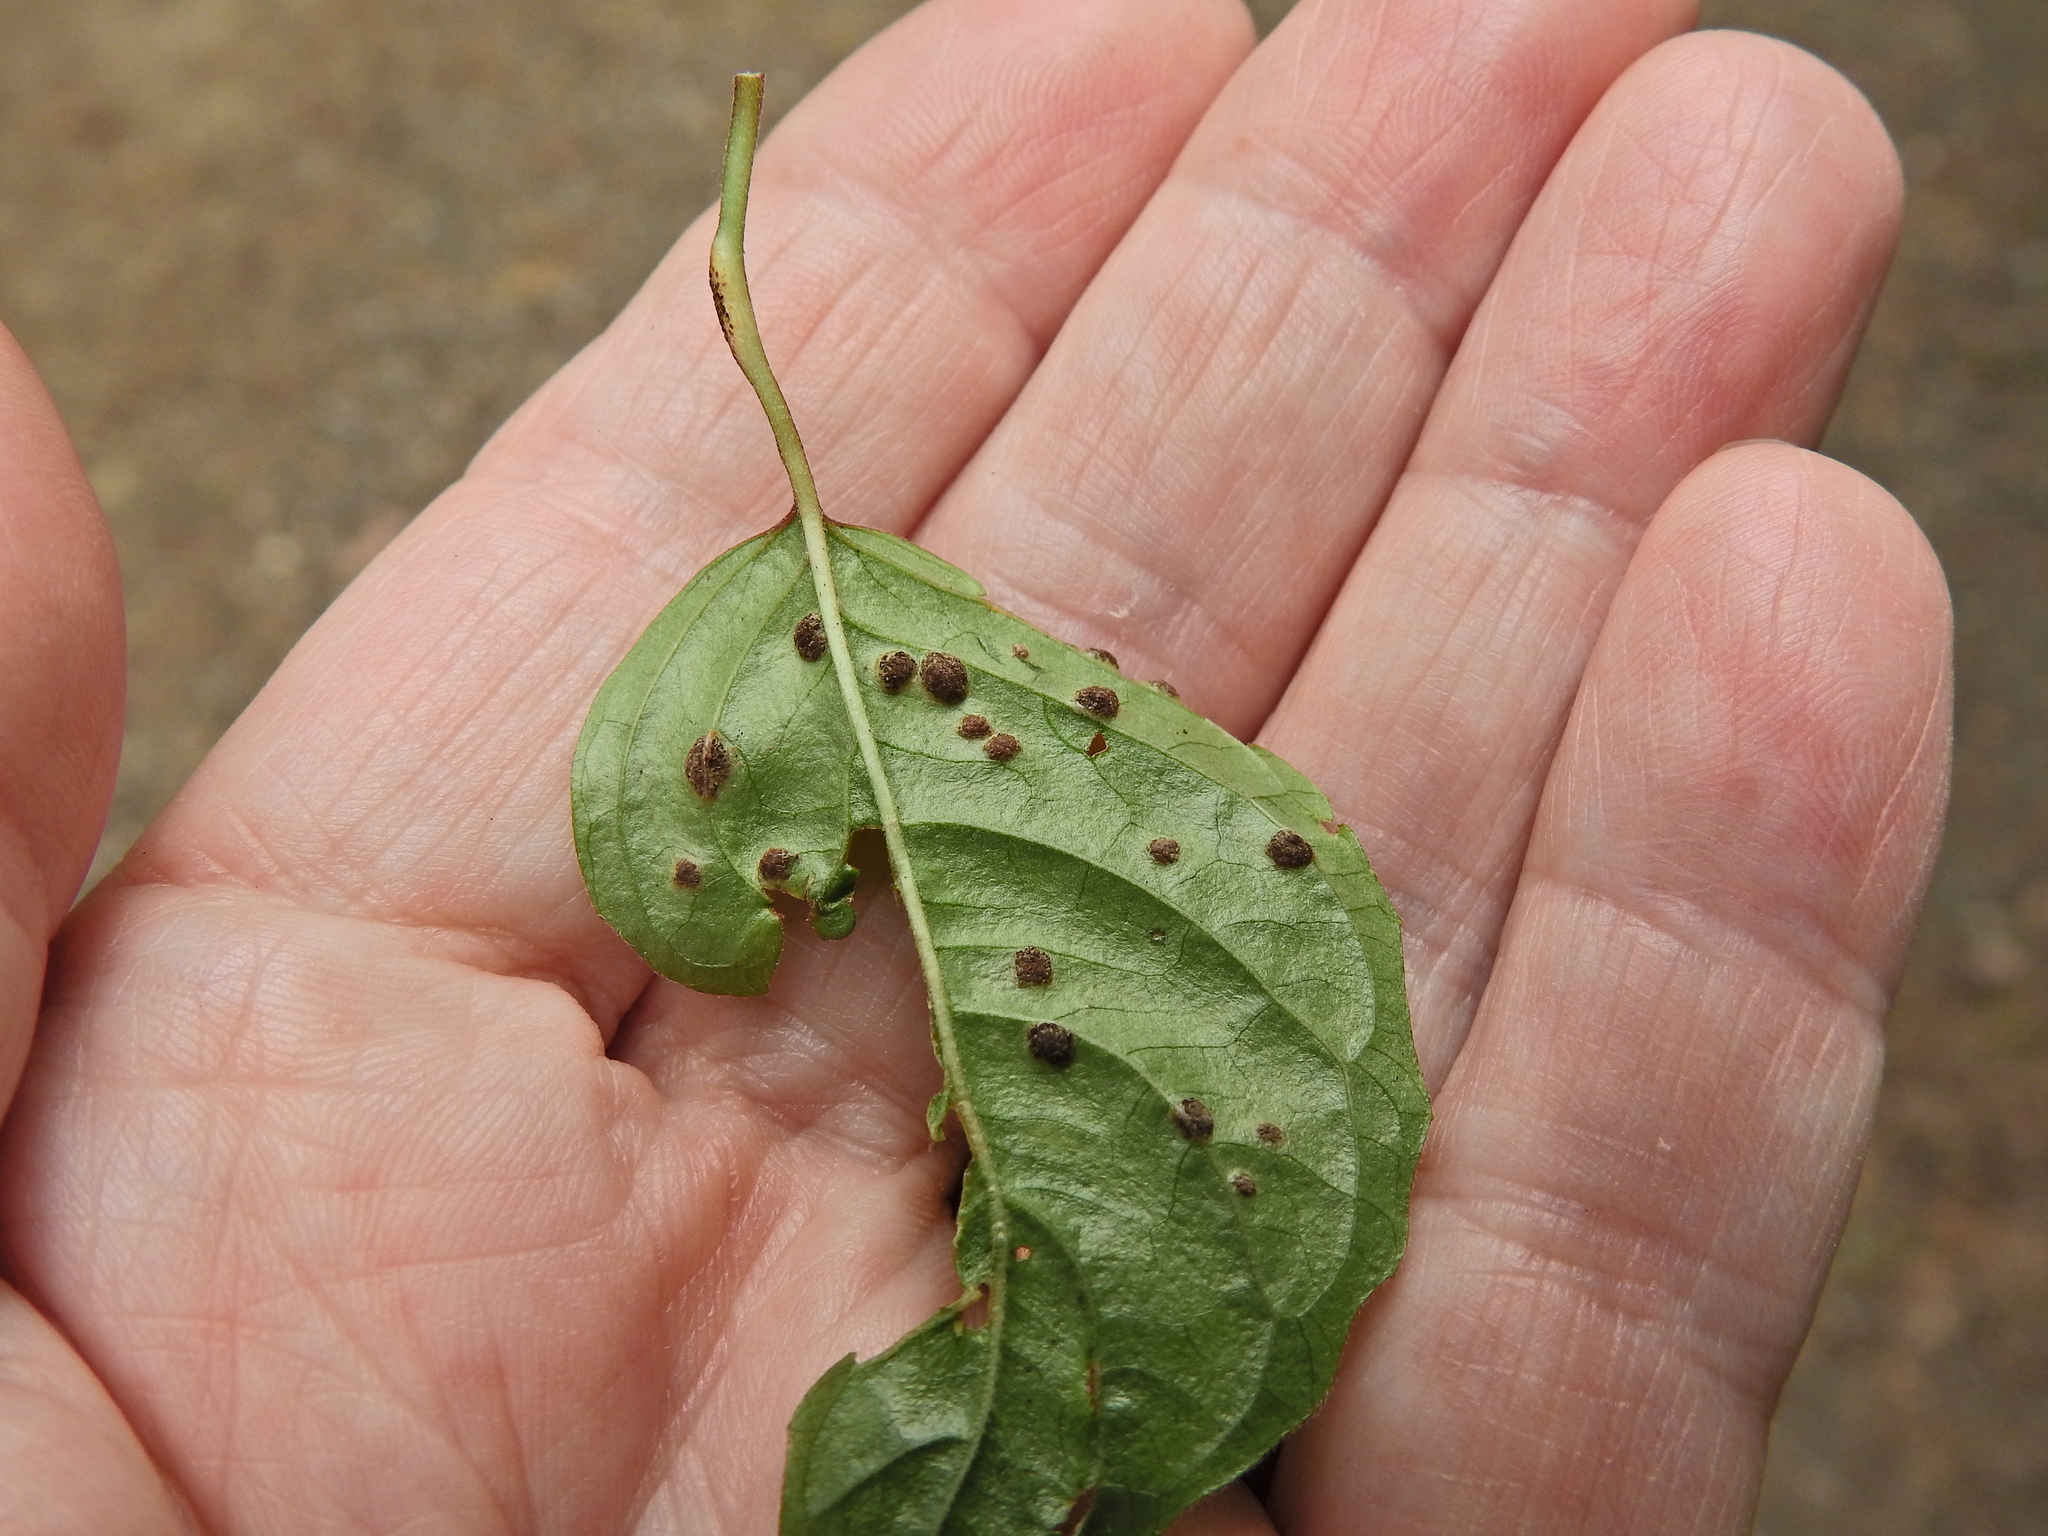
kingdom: Fungi
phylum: Basidiomycota
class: Pucciniomycetes
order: Pucciniales
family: Pucciniaceae
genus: Puccinia
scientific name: Puccinia circaeae
